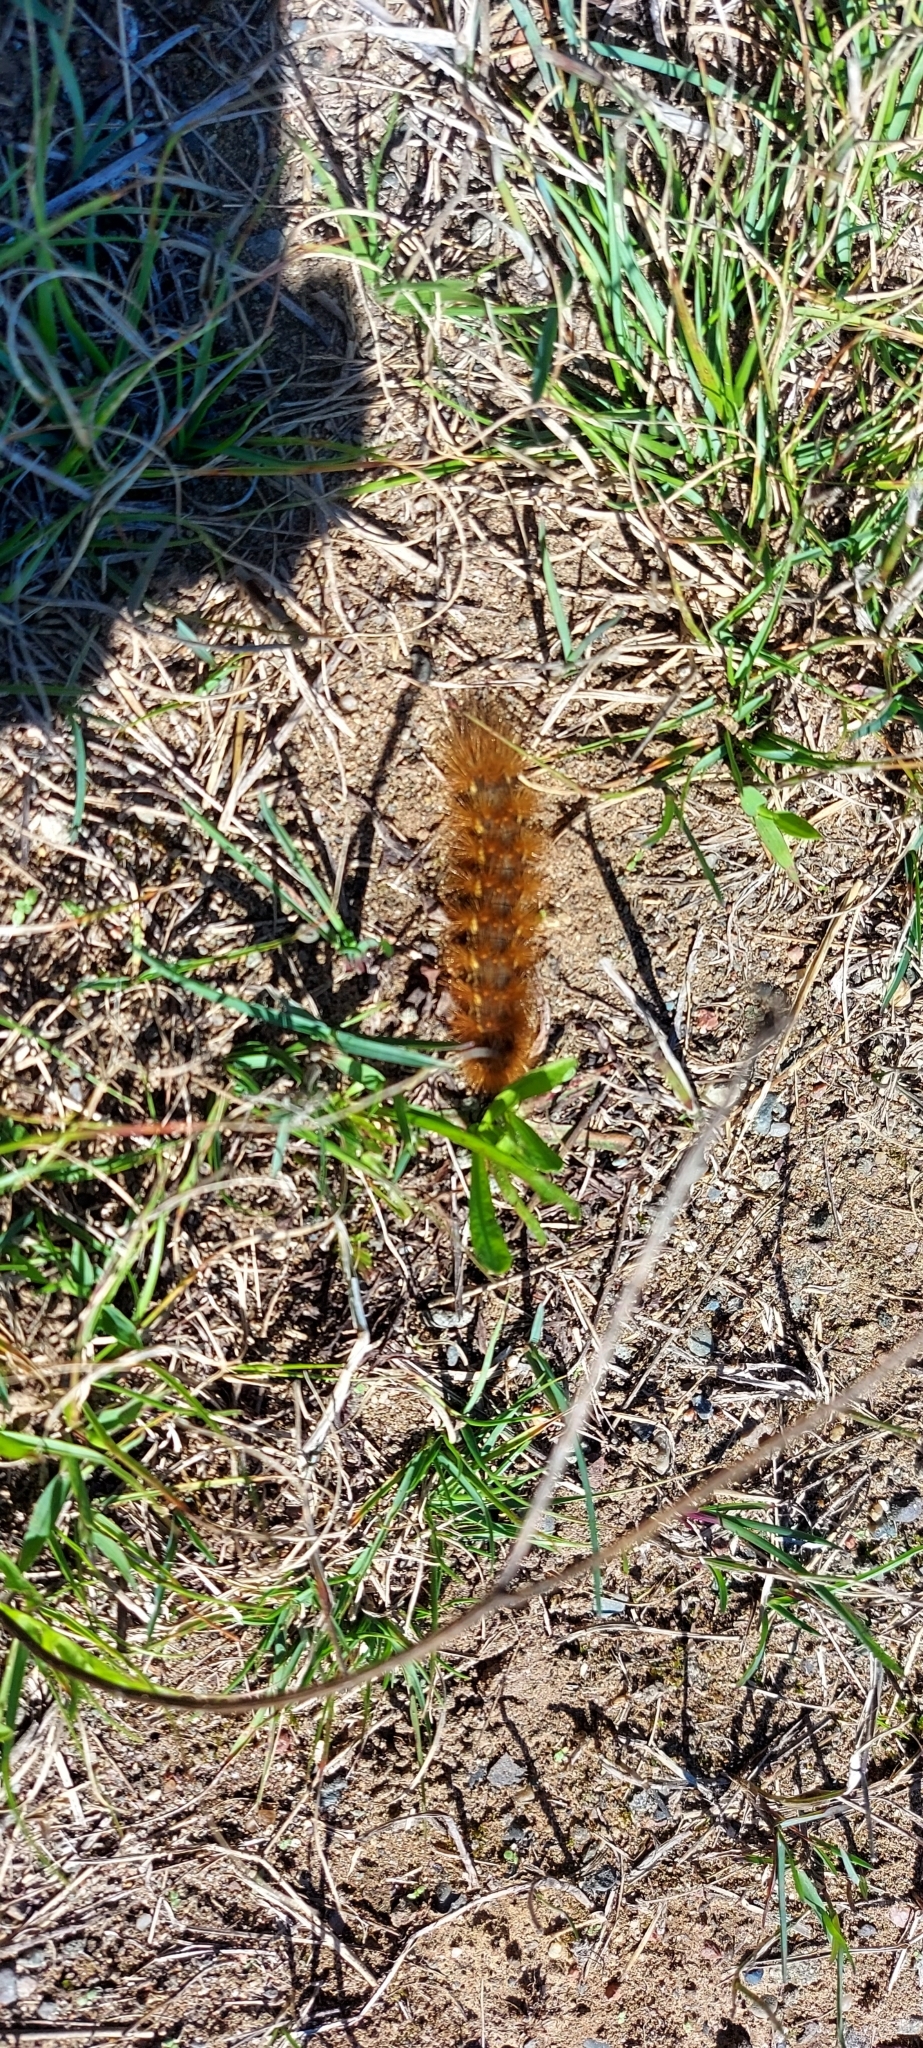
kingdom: Animalia
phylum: Arthropoda
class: Insecta
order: Lepidoptera
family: Erebidae
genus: Estigmene
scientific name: Estigmene acrea
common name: Salt marsh moth
